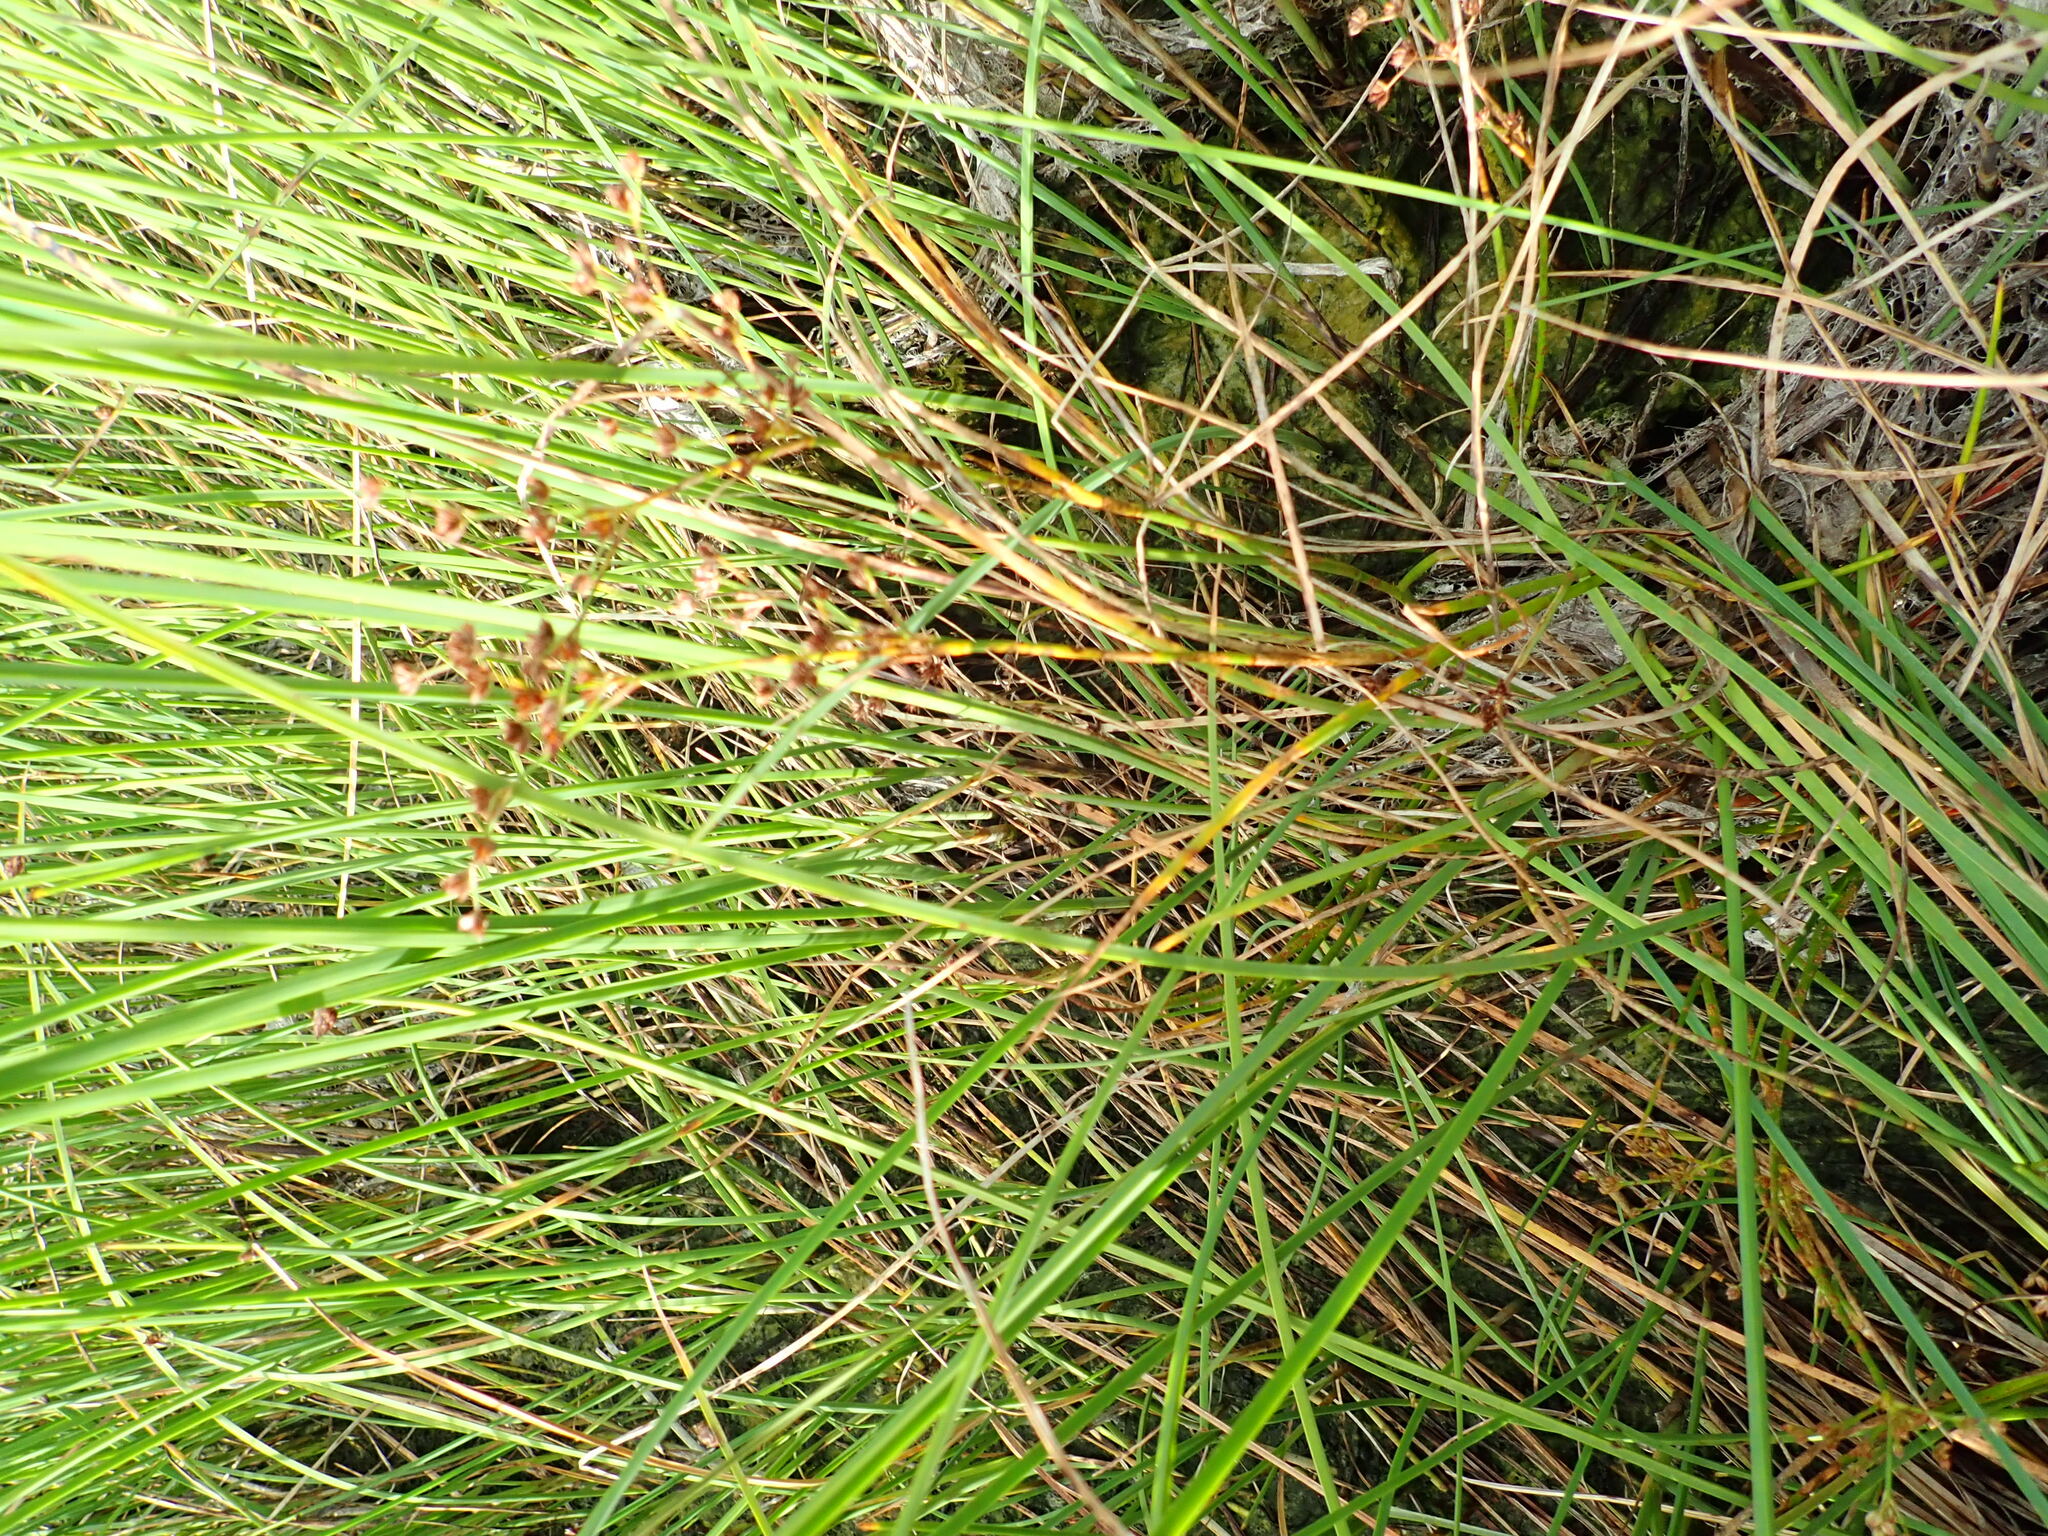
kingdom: Plantae
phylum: Tracheophyta
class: Liliopsida
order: Poales
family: Juncaceae
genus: Juncus
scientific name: Juncus articulatus
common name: Jointed rush
